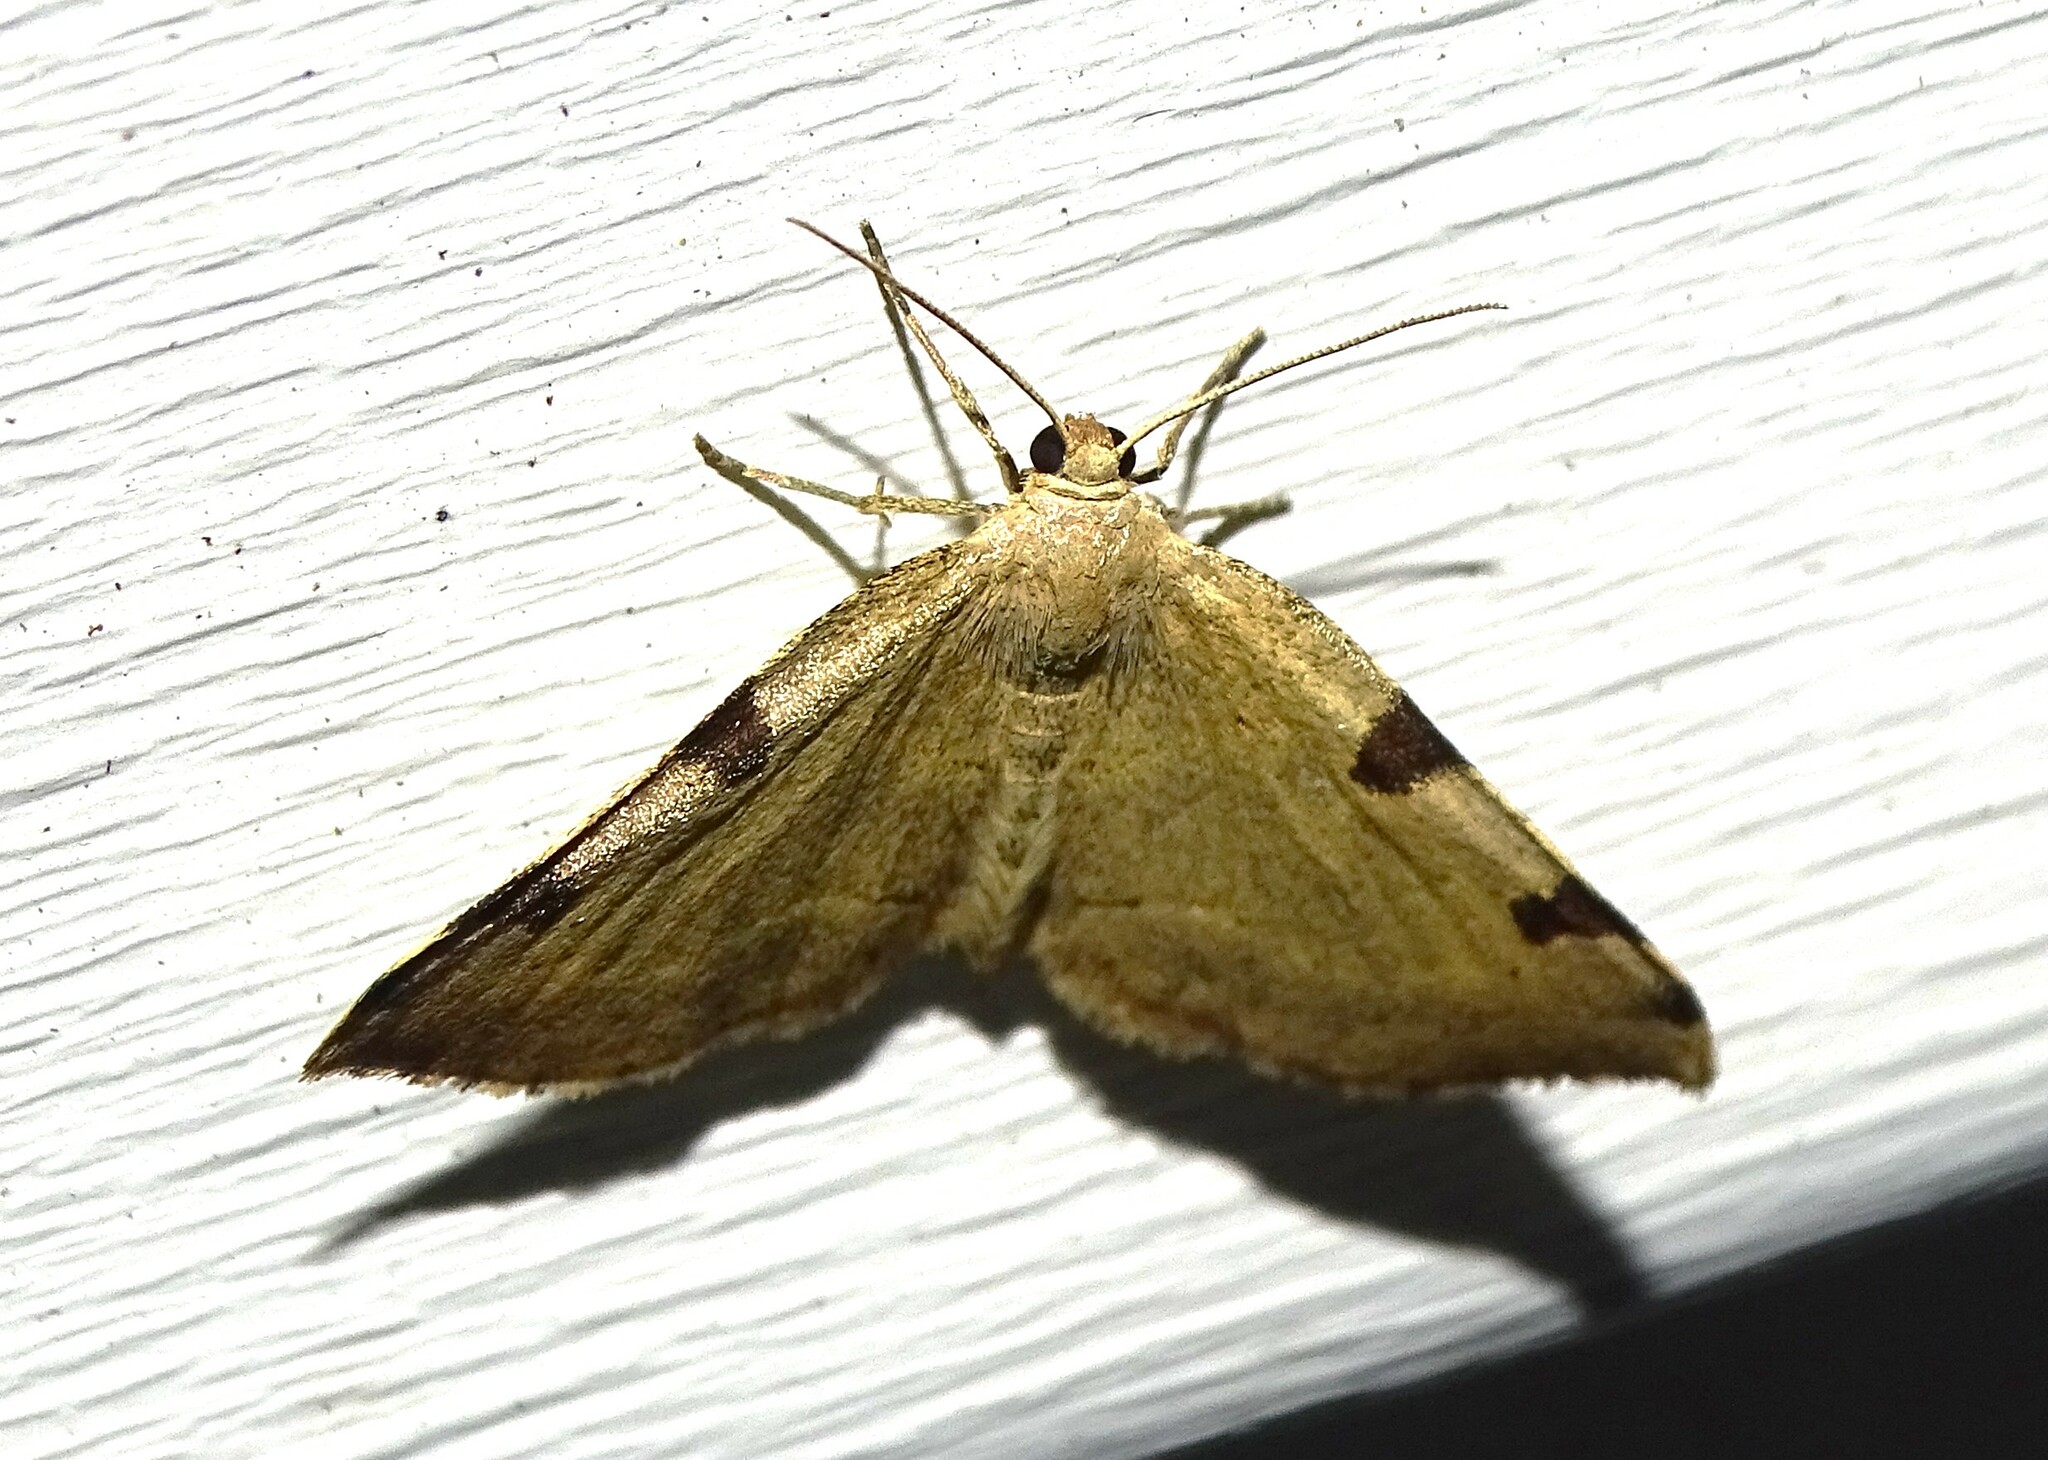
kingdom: Animalia
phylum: Arthropoda
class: Insecta
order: Lepidoptera
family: Geometridae
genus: Heterophleps
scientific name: Heterophleps triguttaria
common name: Three-spotted fillip
